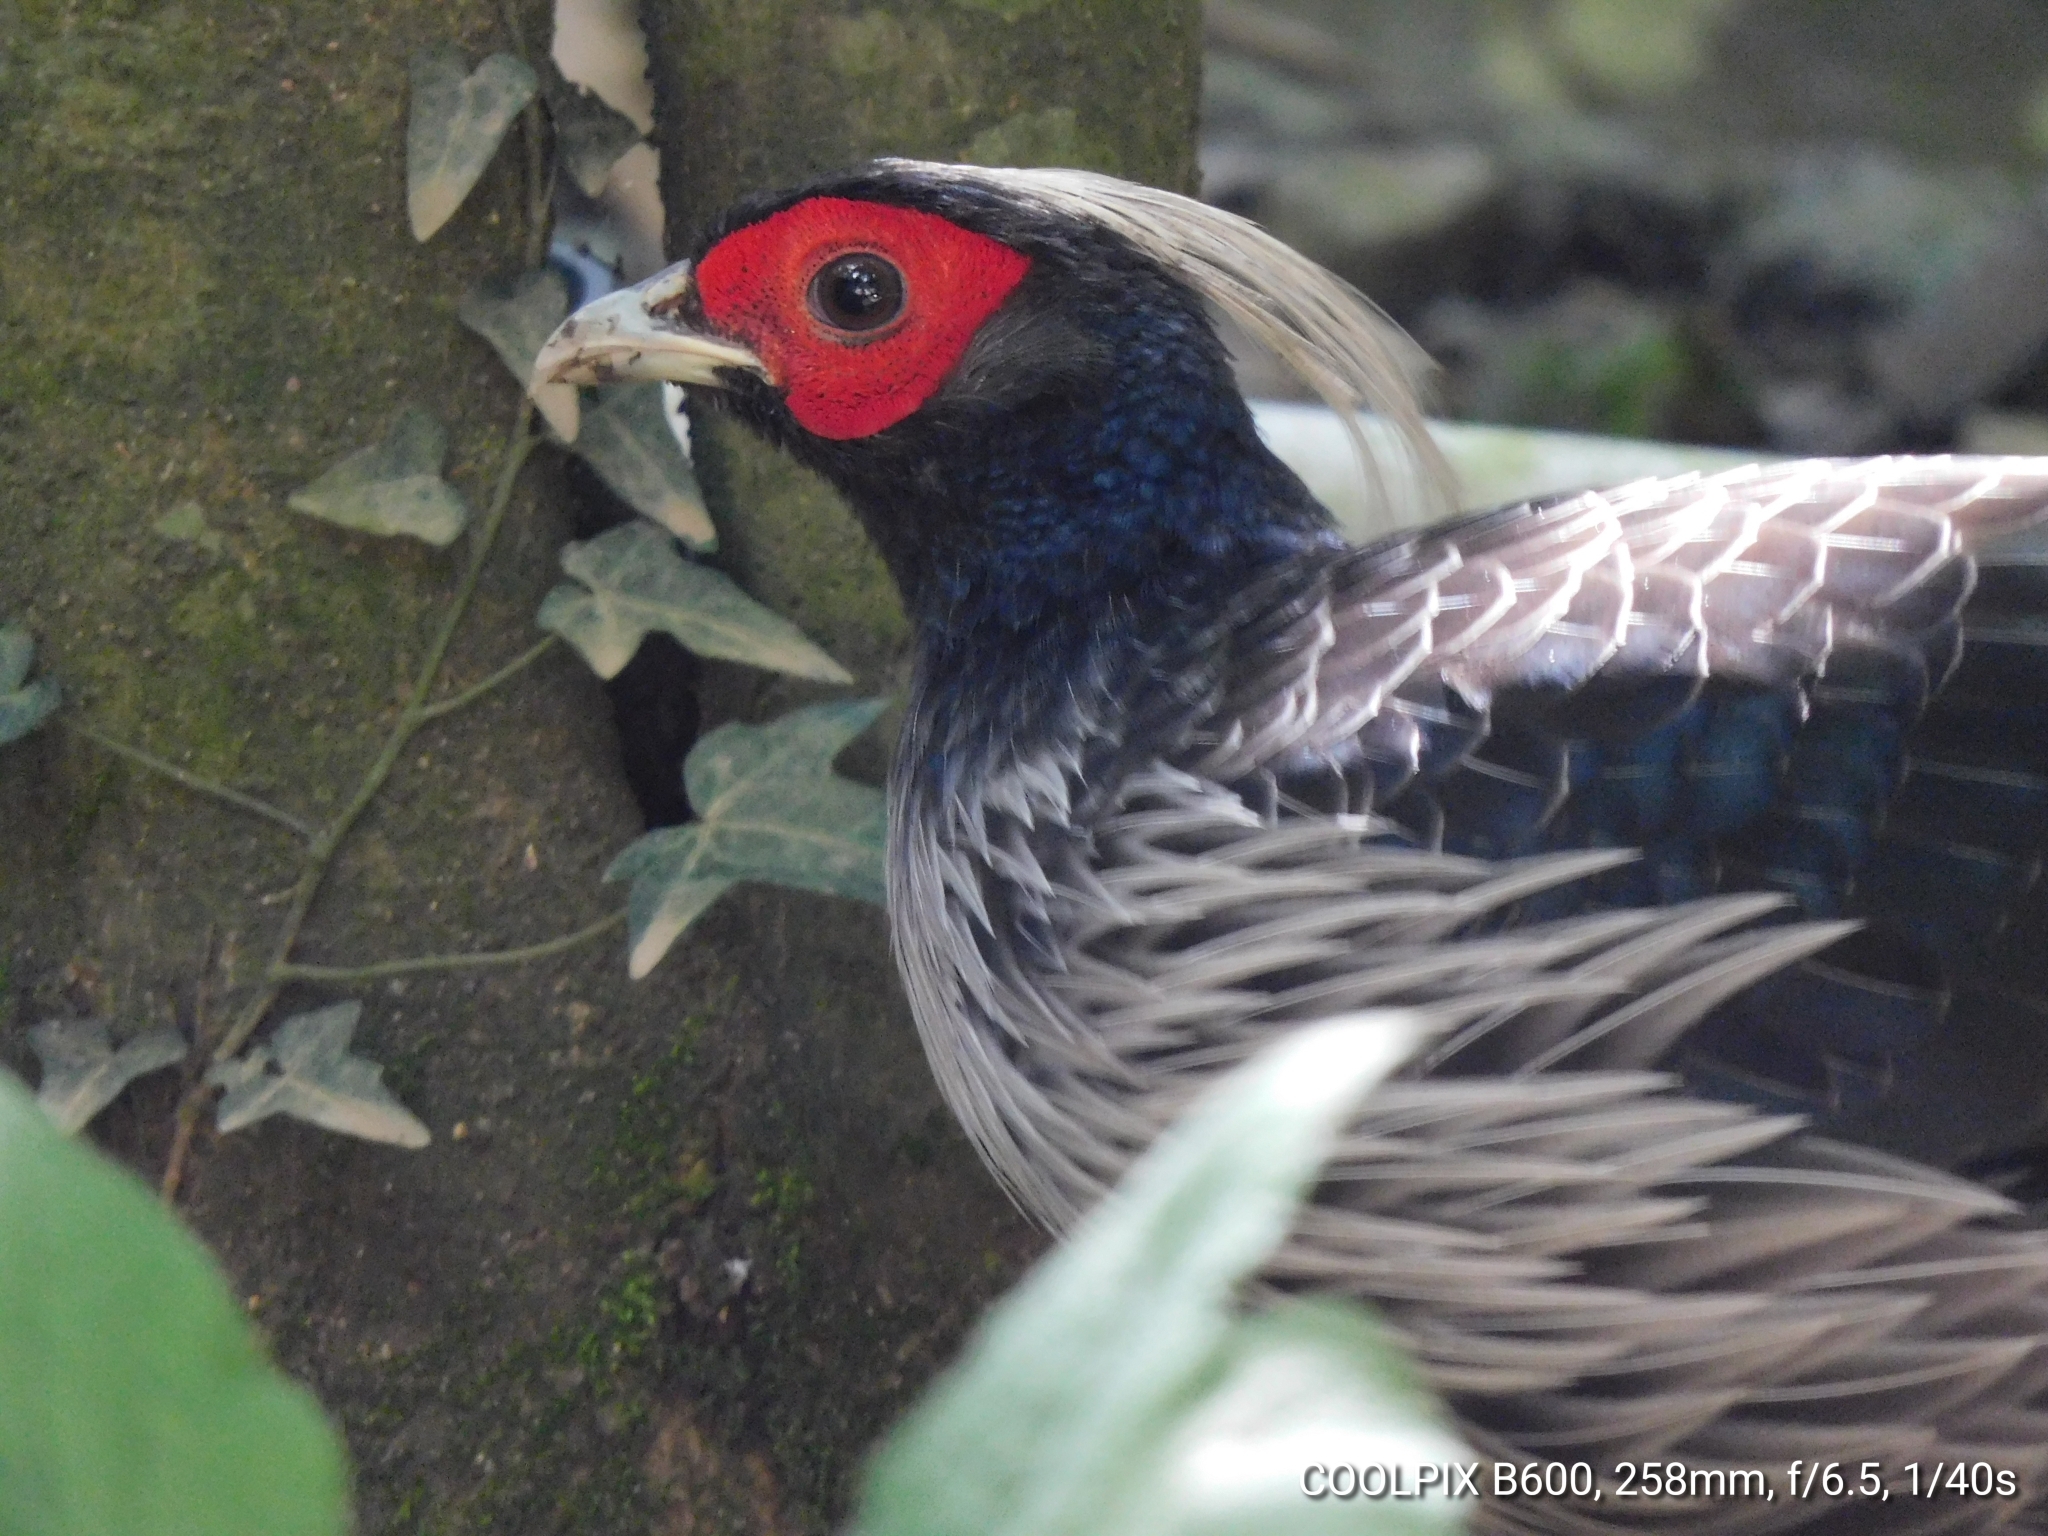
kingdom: Animalia
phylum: Chordata
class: Aves
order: Galliformes
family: Phasianidae
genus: Lophura
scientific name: Lophura leucomelanos
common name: Kalij pheasant
